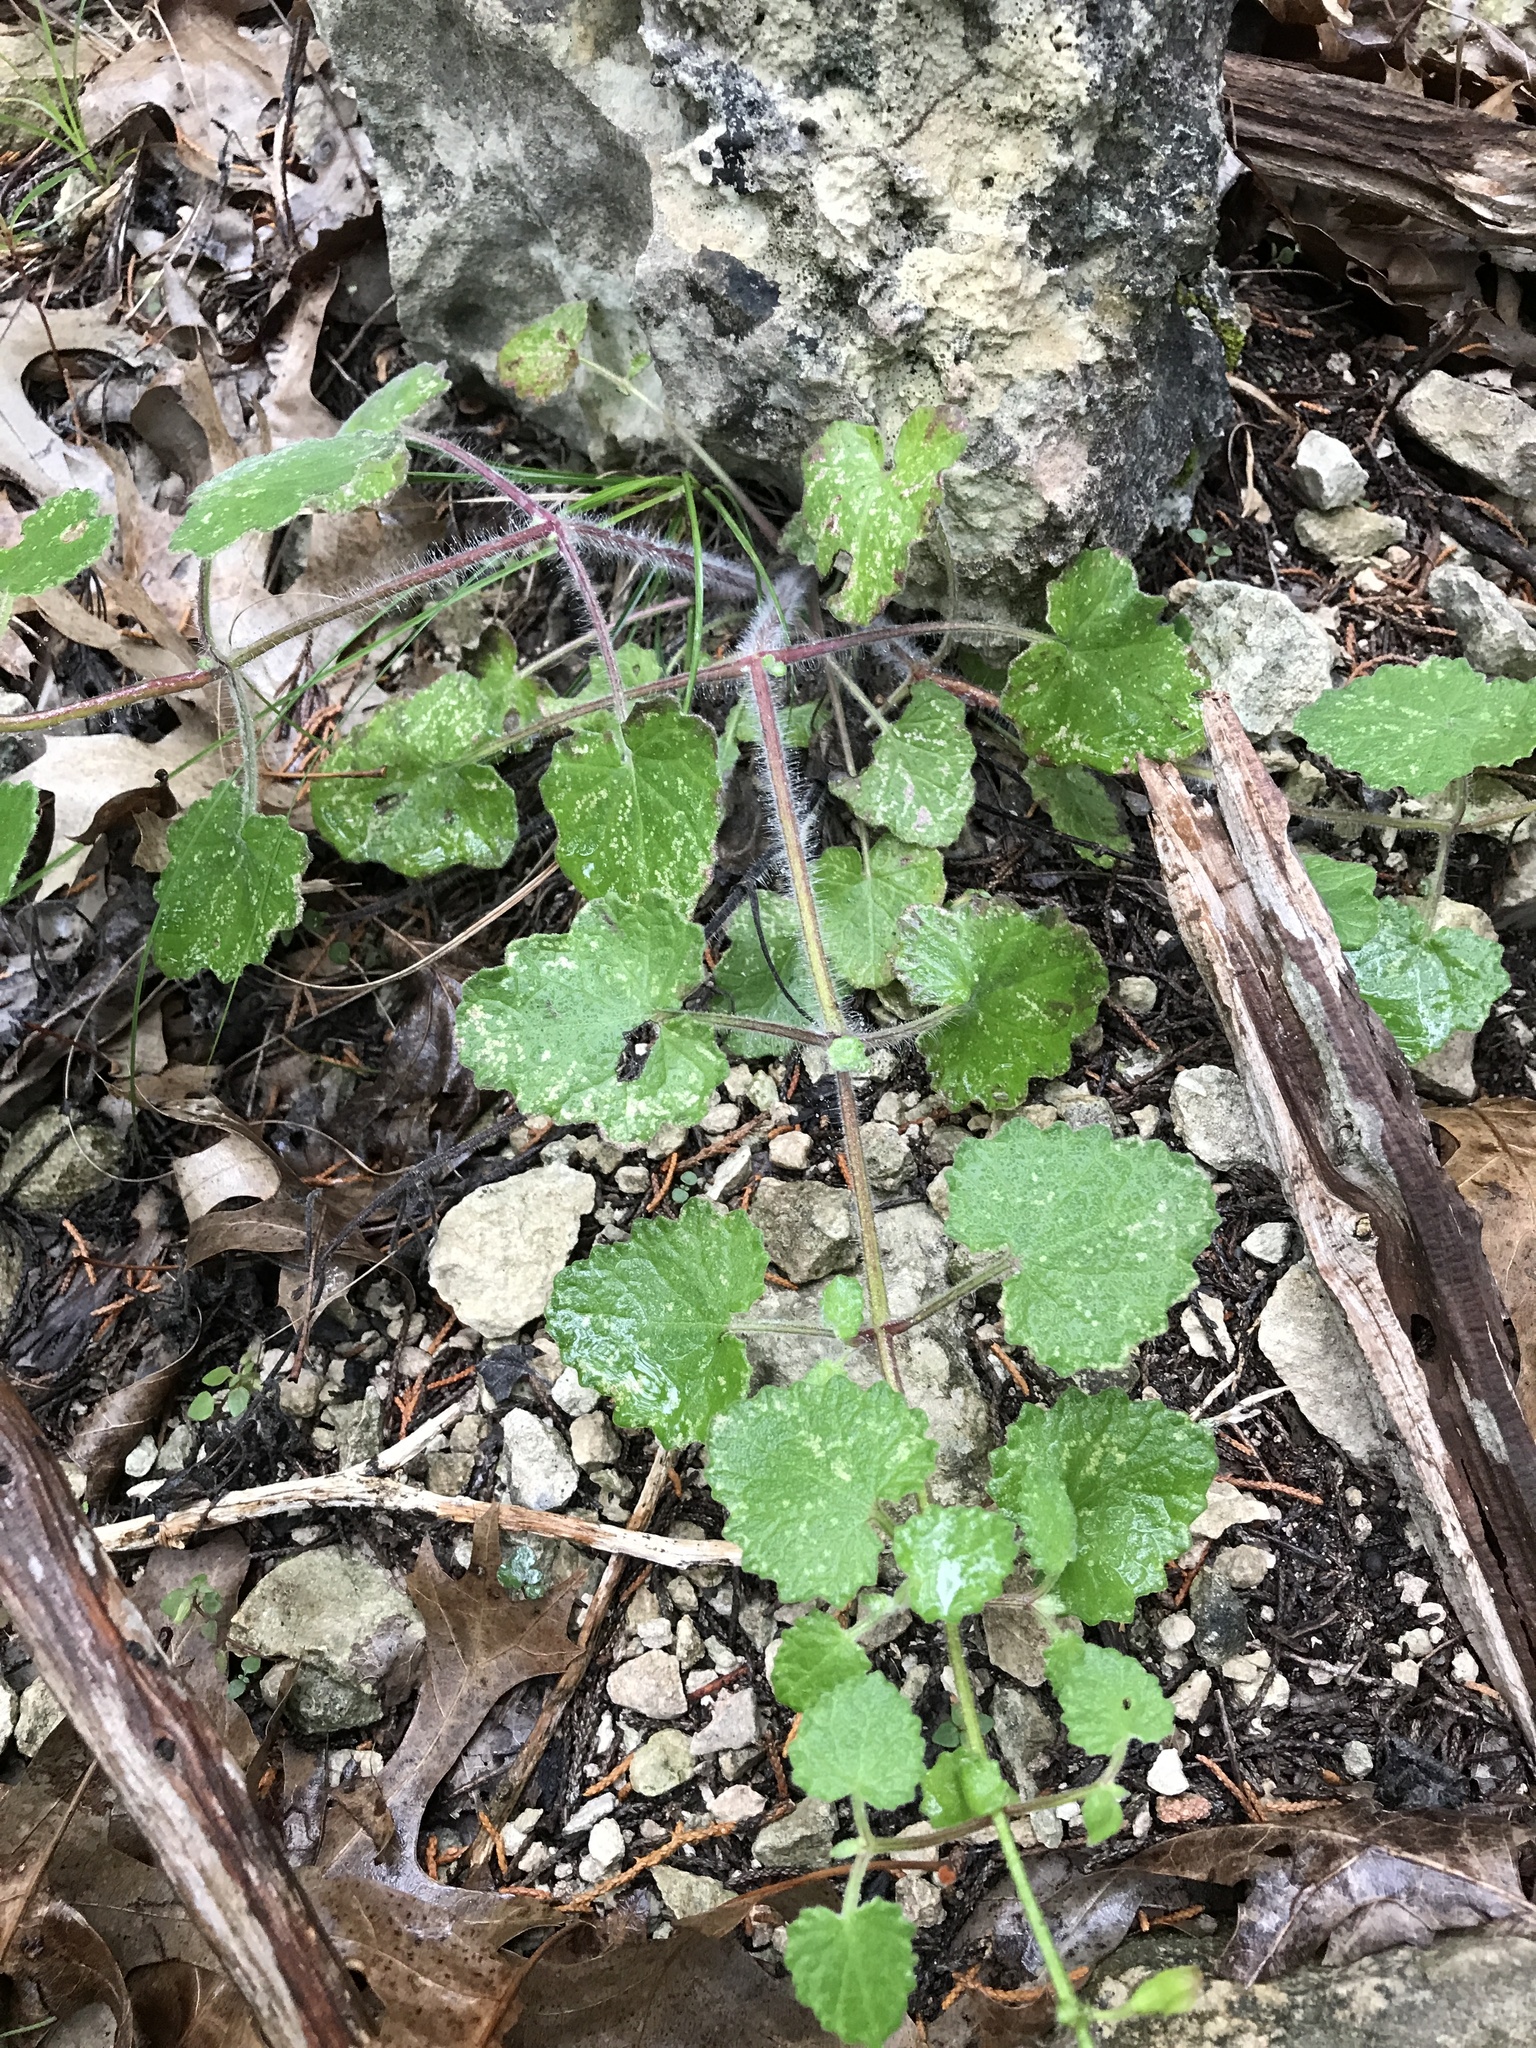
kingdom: Plantae
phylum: Tracheophyta
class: Magnoliopsida
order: Lamiales
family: Lamiaceae
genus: Salvia
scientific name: Salvia roemeriana
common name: Cedar sage
